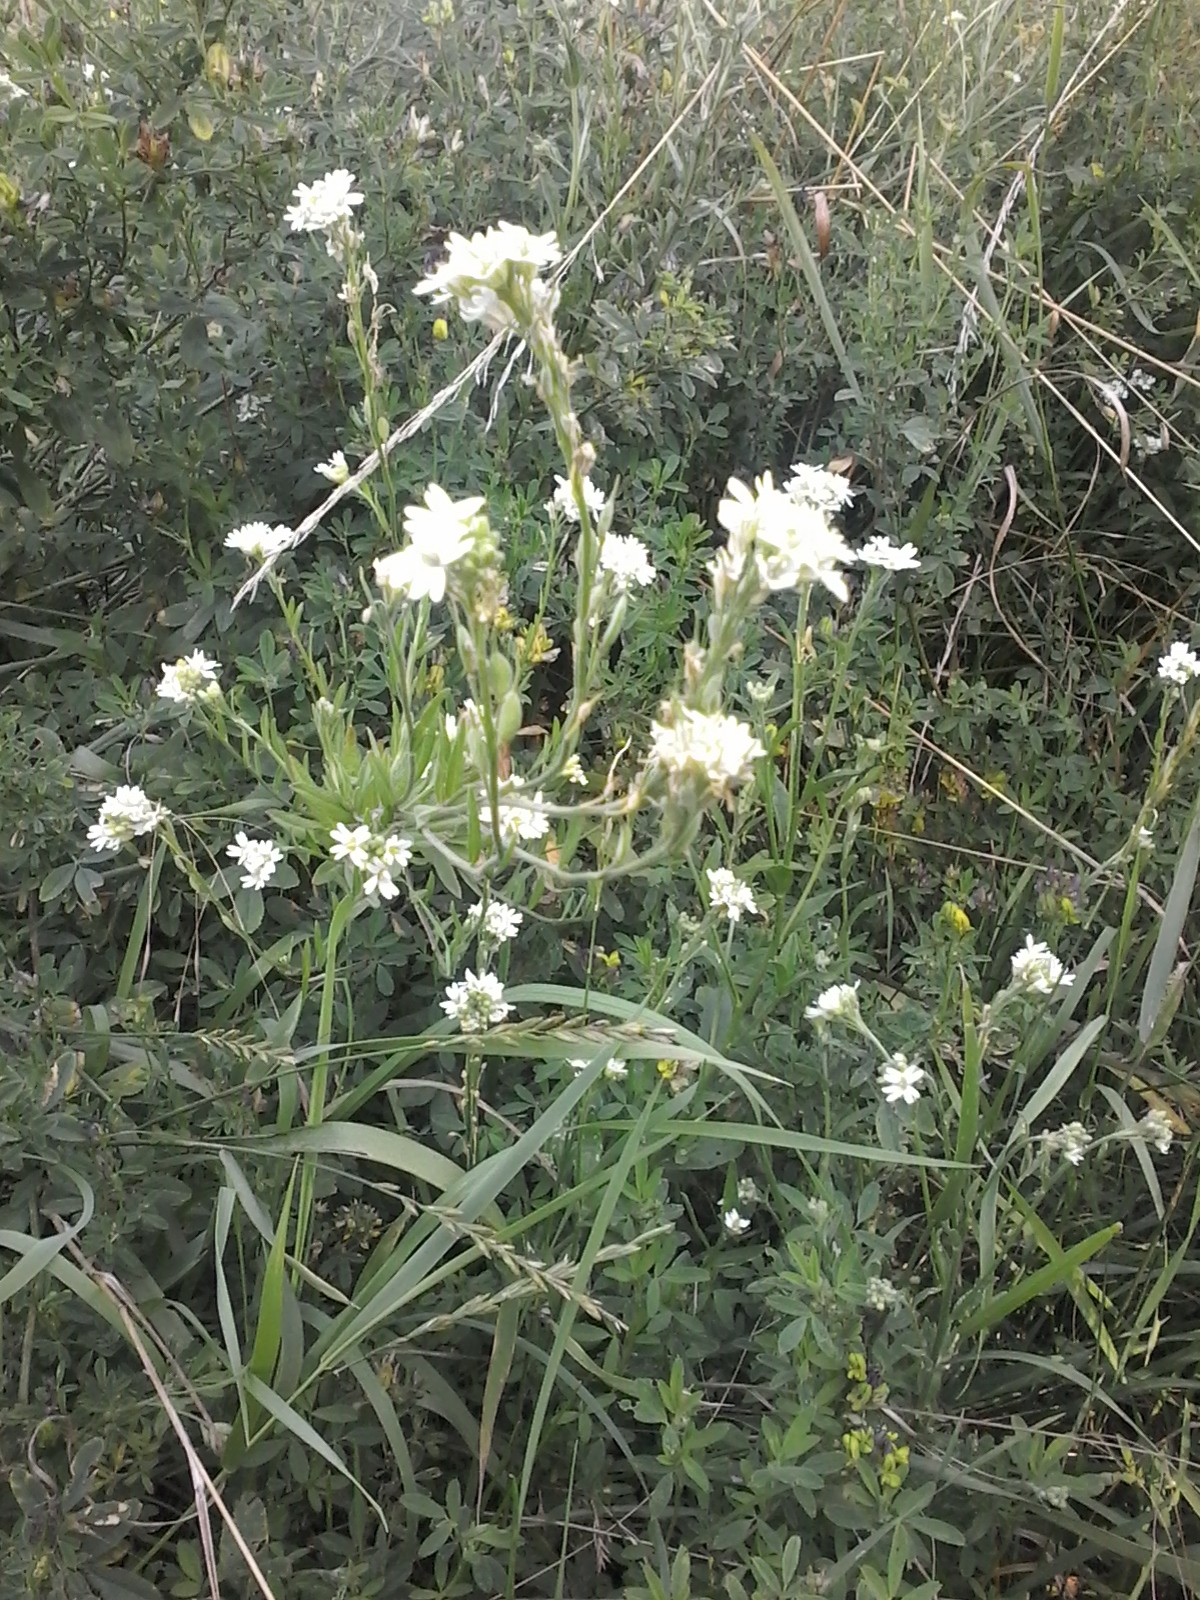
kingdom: Plantae
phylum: Tracheophyta
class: Magnoliopsida
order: Brassicales
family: Brassicaceae
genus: Berteroa
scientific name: Berteroa incana
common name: Hoary alison
